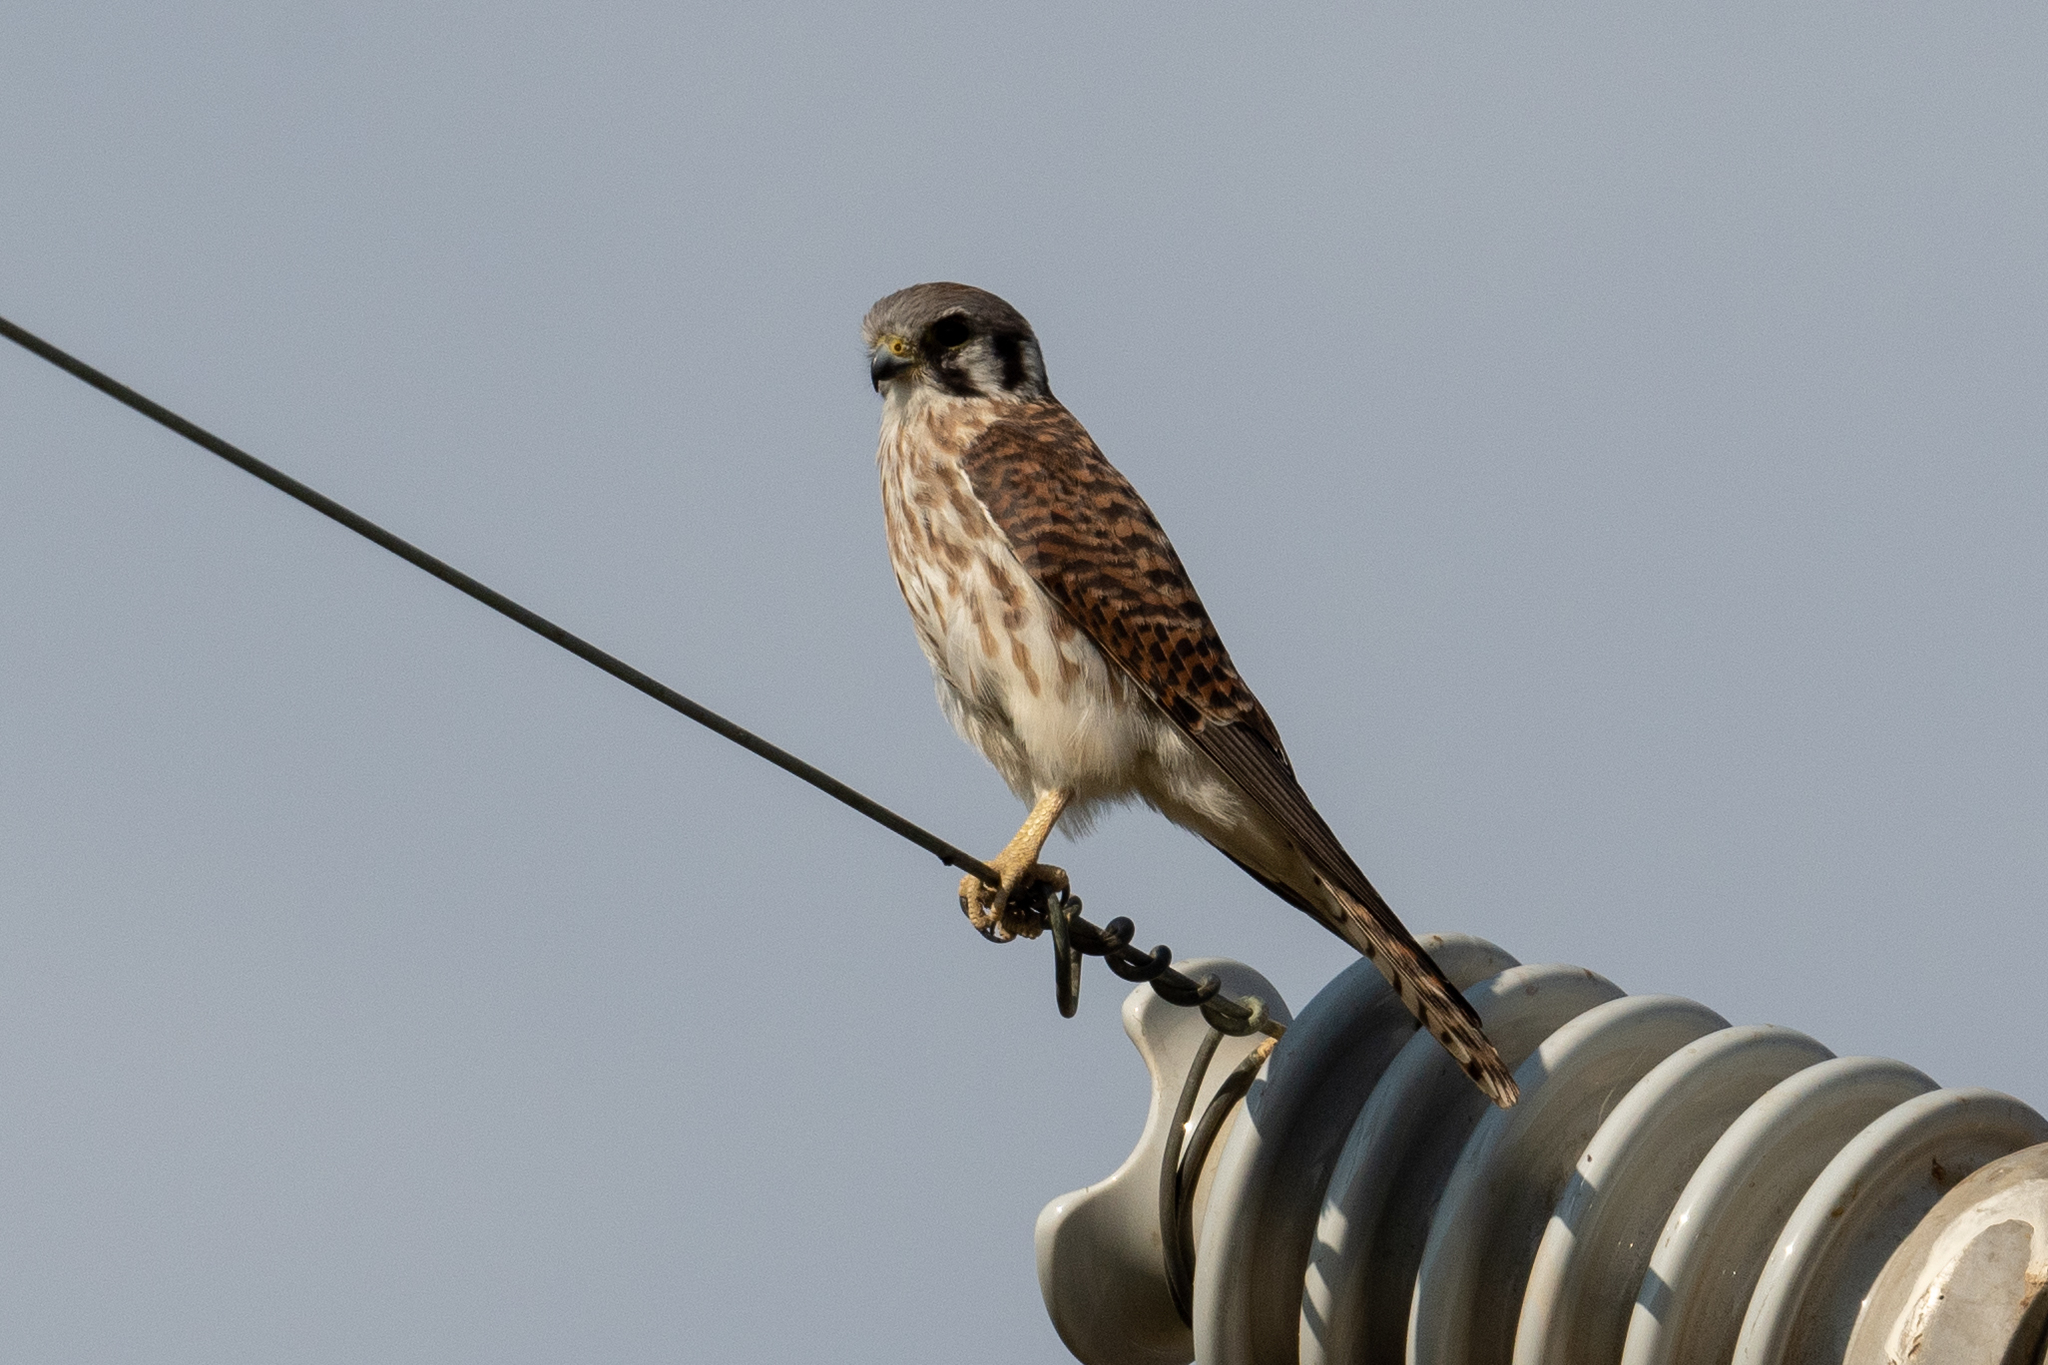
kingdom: Animalia
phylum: Chordata
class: Aves
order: Falconiformes
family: Falconidae
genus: Falco
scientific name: Falco sparverius
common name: American kestrel
